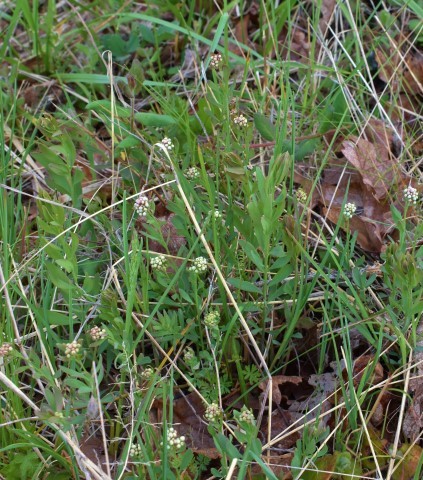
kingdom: Plantae
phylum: Tracheophyta
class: Magnoliopsida
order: Santalales
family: Comandraceae
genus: Comandra
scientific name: Comandra umbellata
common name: Bastard toadflax
